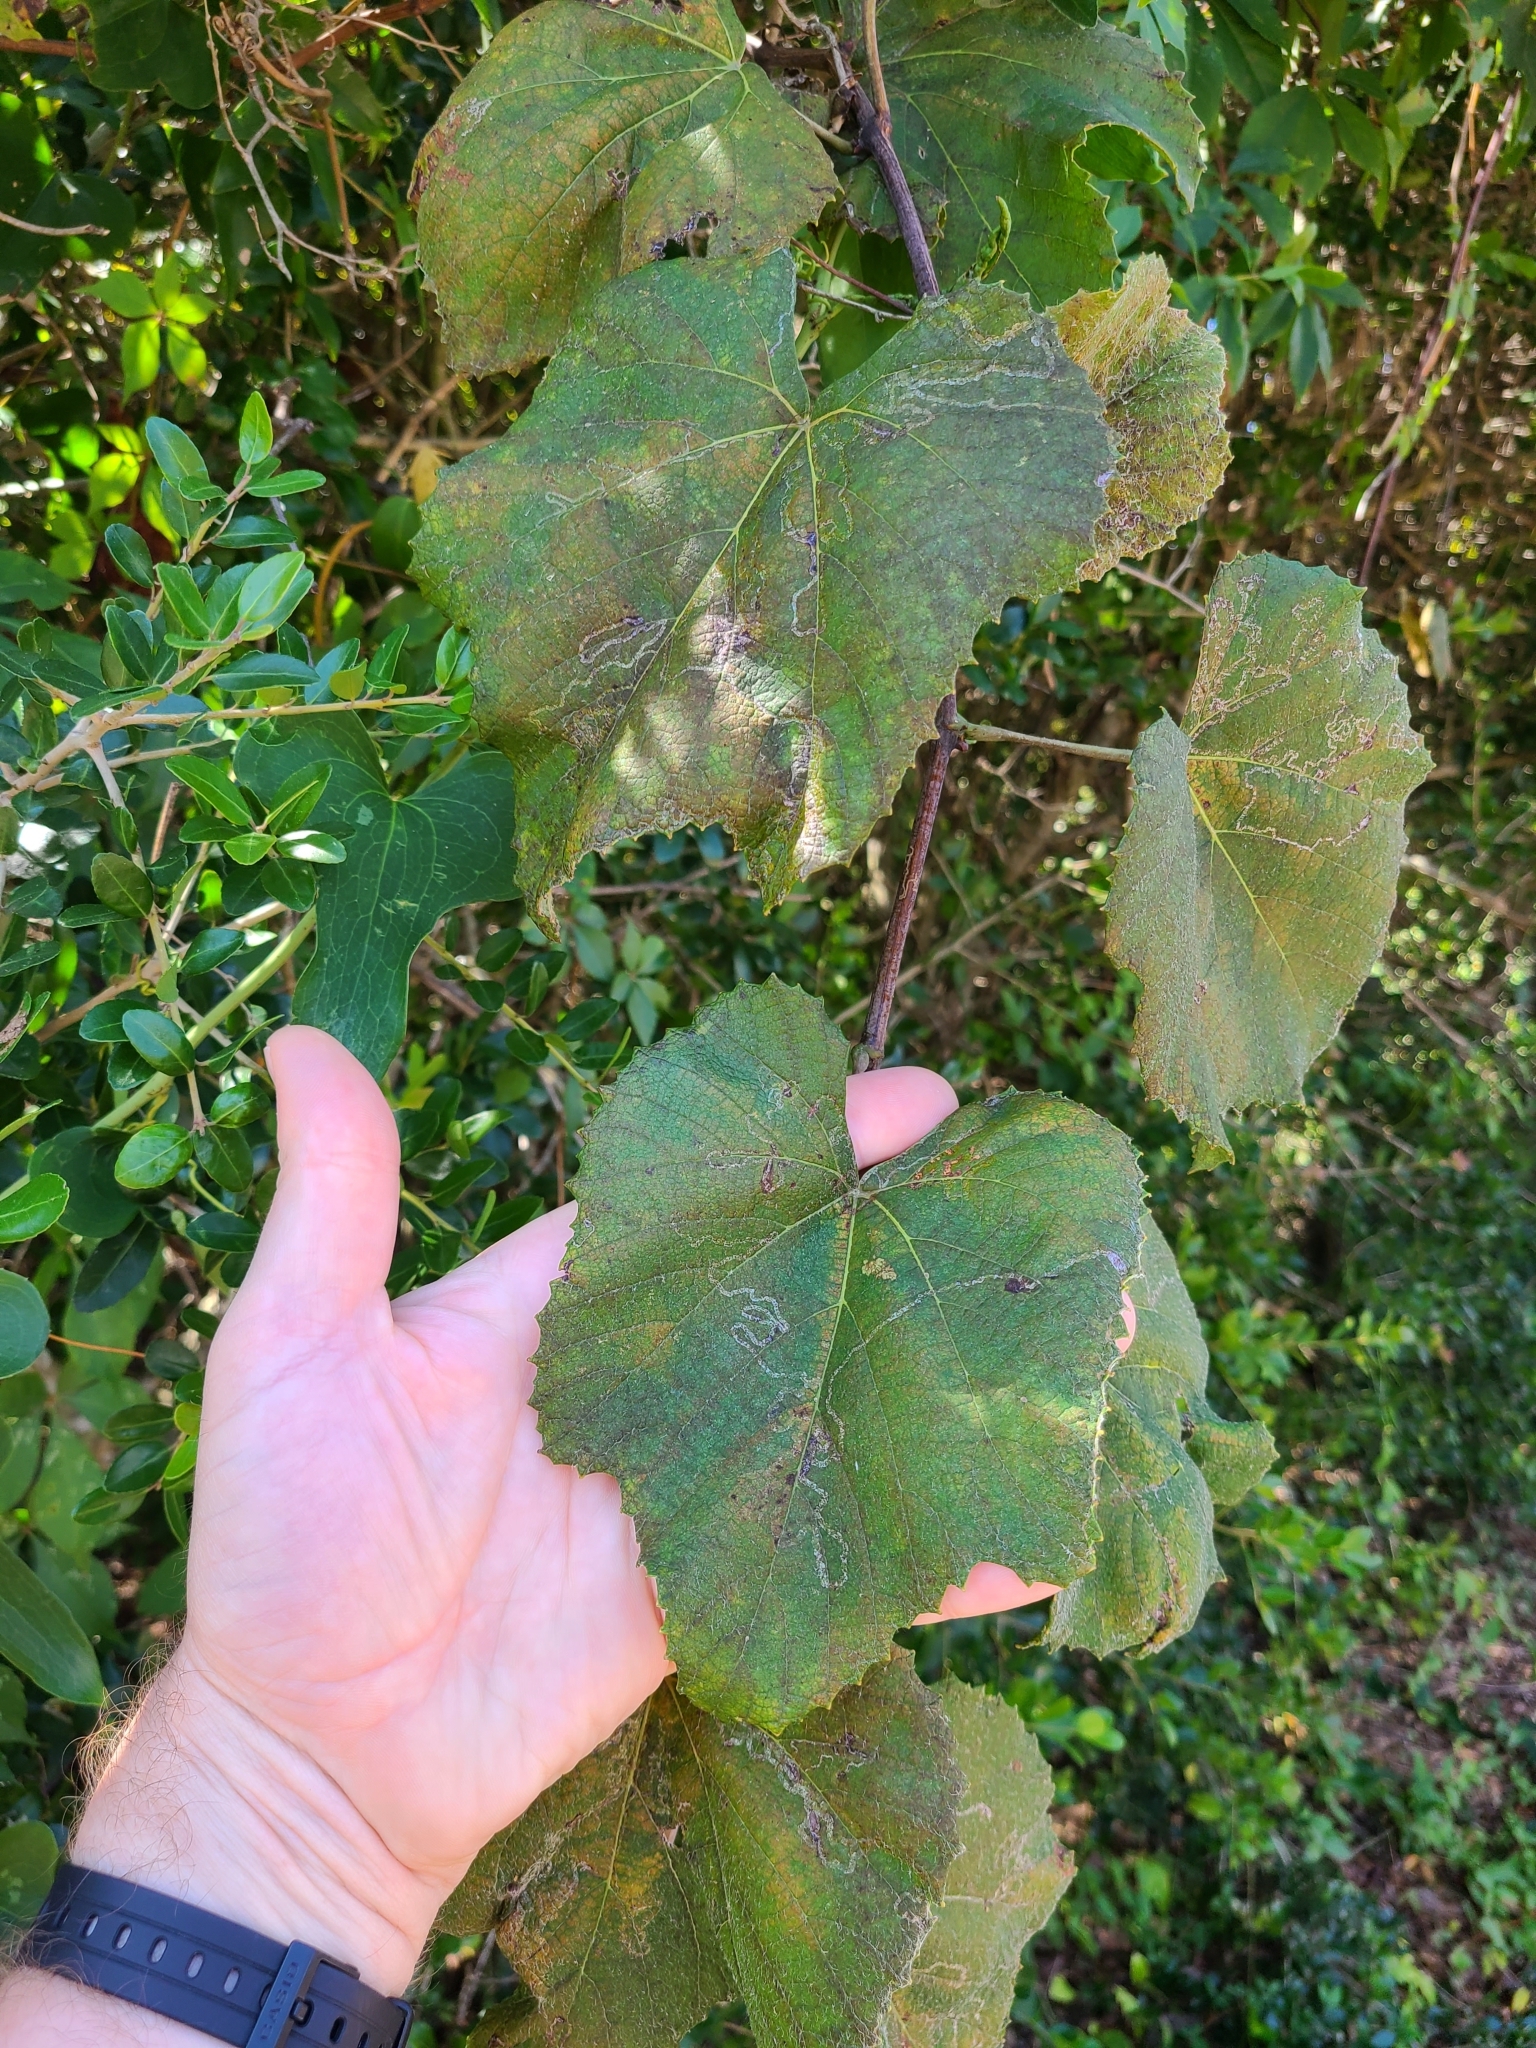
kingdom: Animalia
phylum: Arthropoda
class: Insecta
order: Lepidoptera
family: Gracillariidae
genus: Phyllocnistis
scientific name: Phyllocnistis vitegenella
